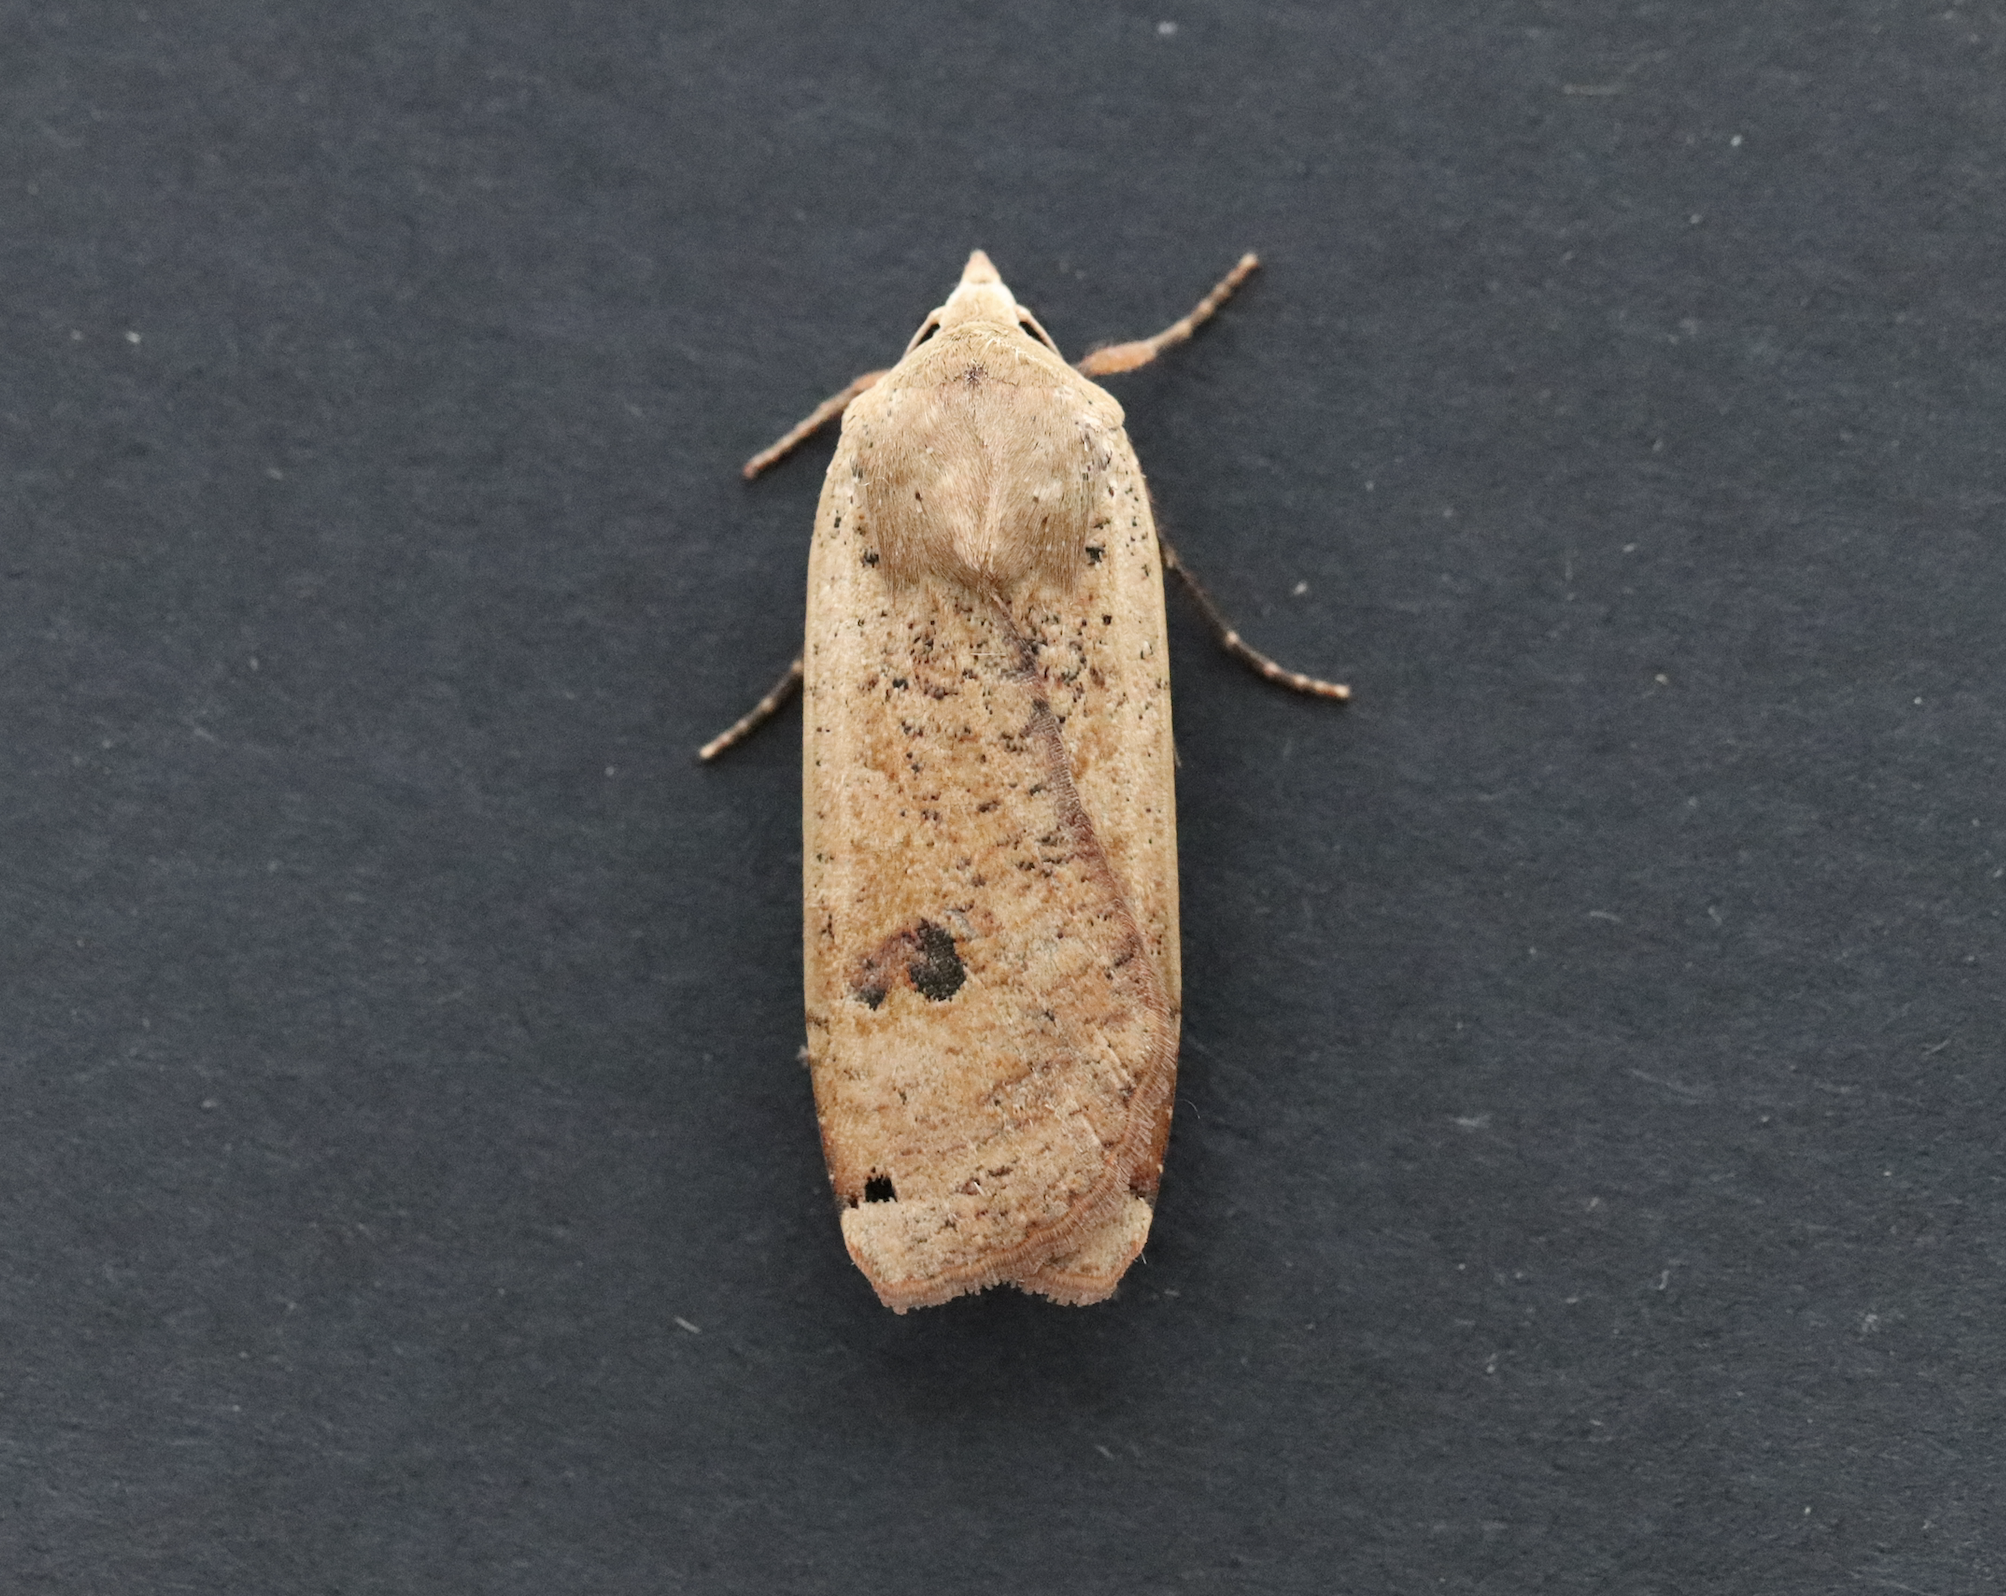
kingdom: Animalia
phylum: Arthropoda
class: Insecta
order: Lepidoptera
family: Noctuidae
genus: Noctua
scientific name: Noctua pronuba
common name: Large yellow underwing
